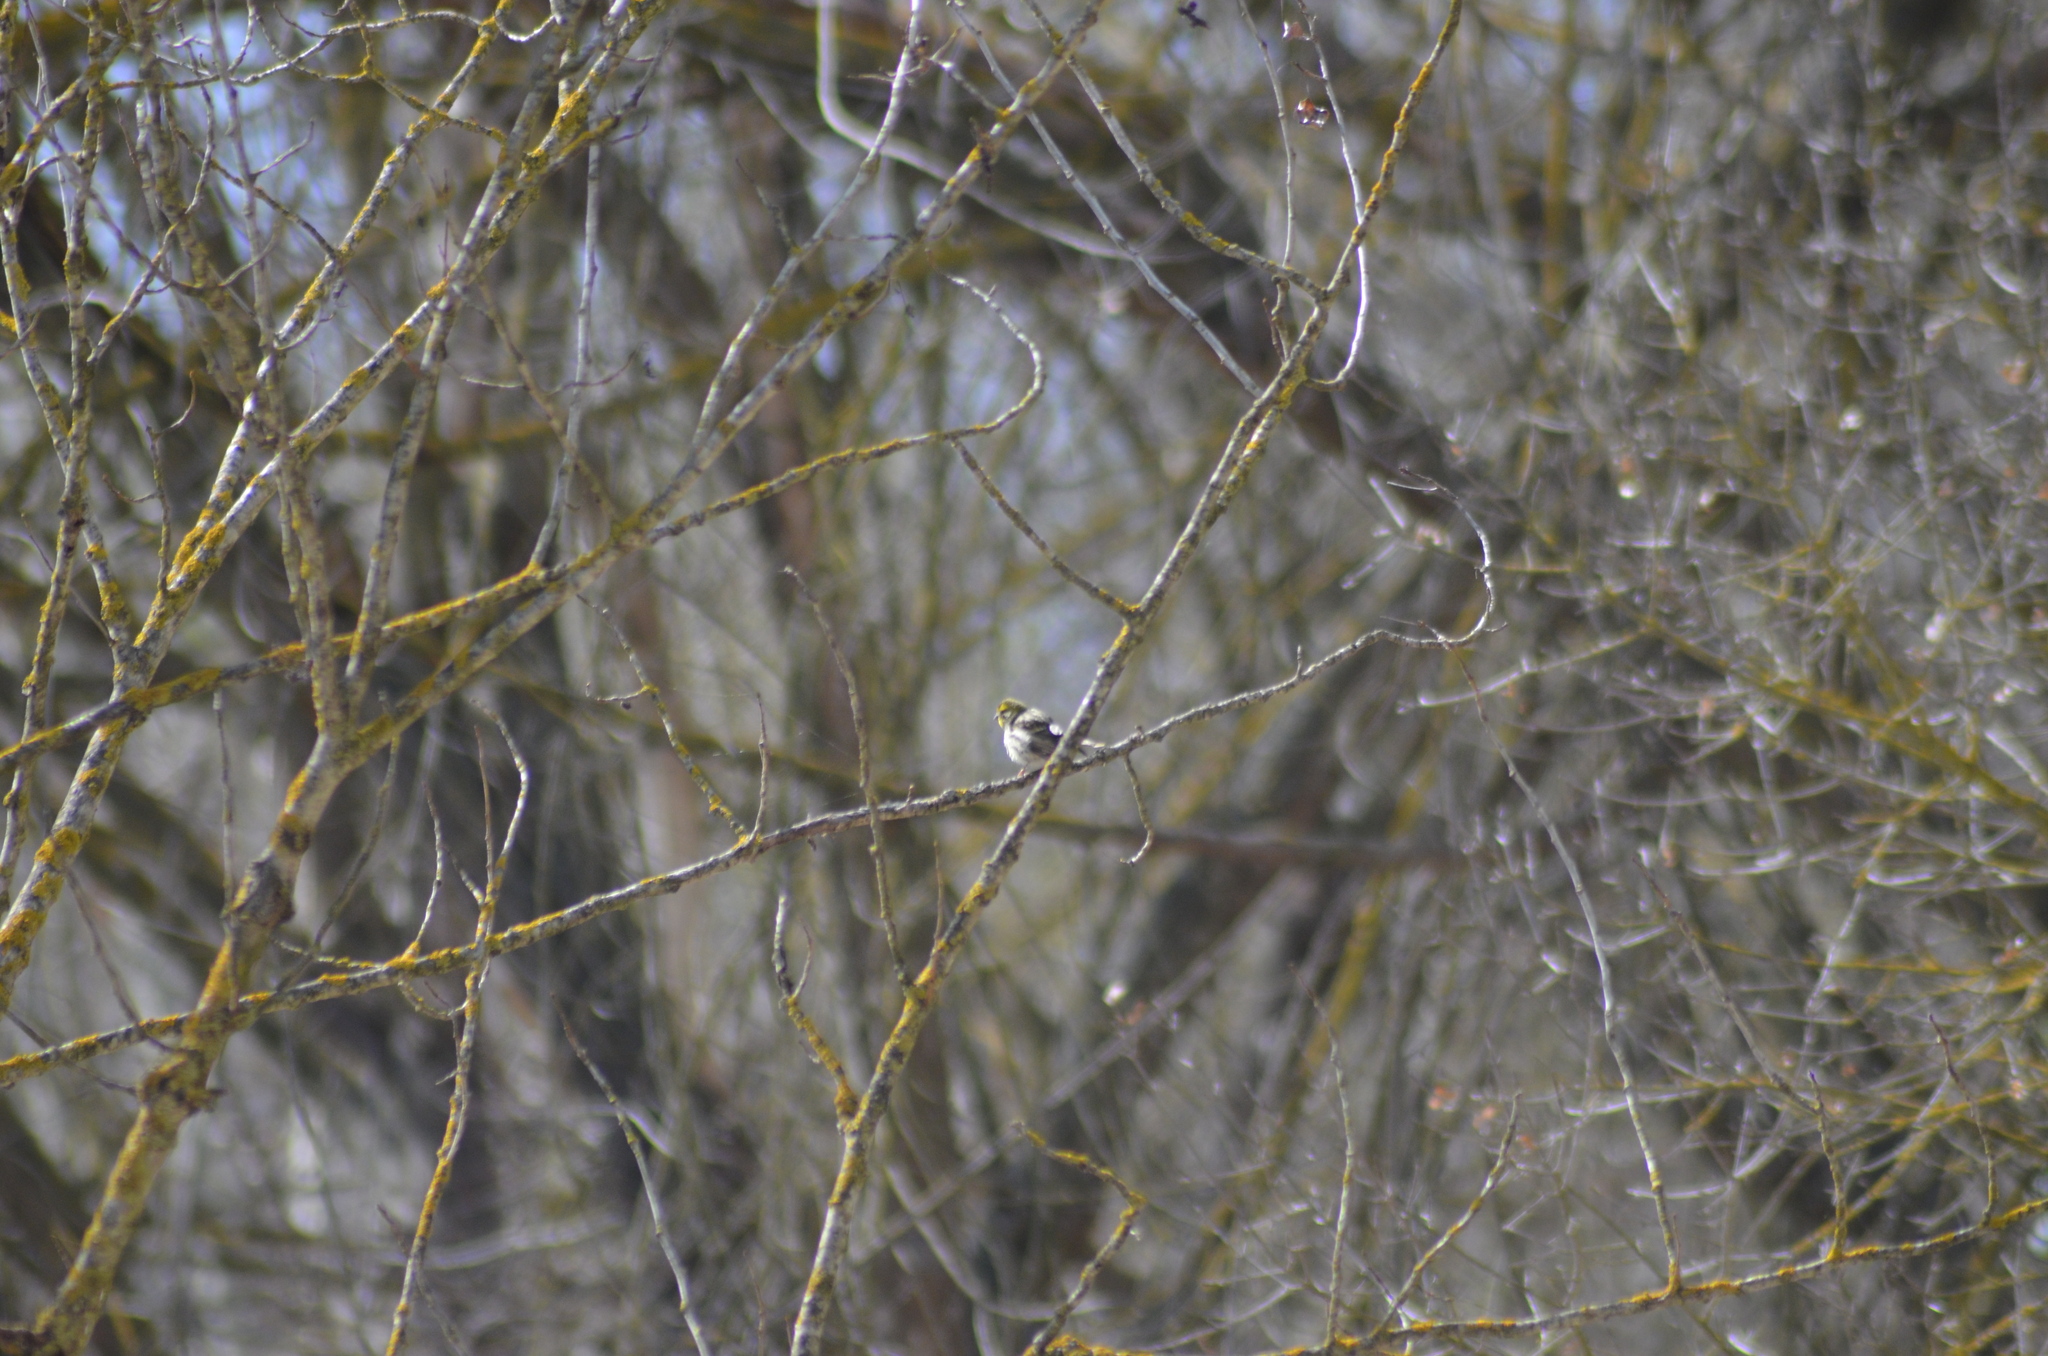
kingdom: Animalia
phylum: Chordata
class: Aves
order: Passeriformes
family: Fringillidae
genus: Serinus
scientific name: Serinus serinus
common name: European serin
